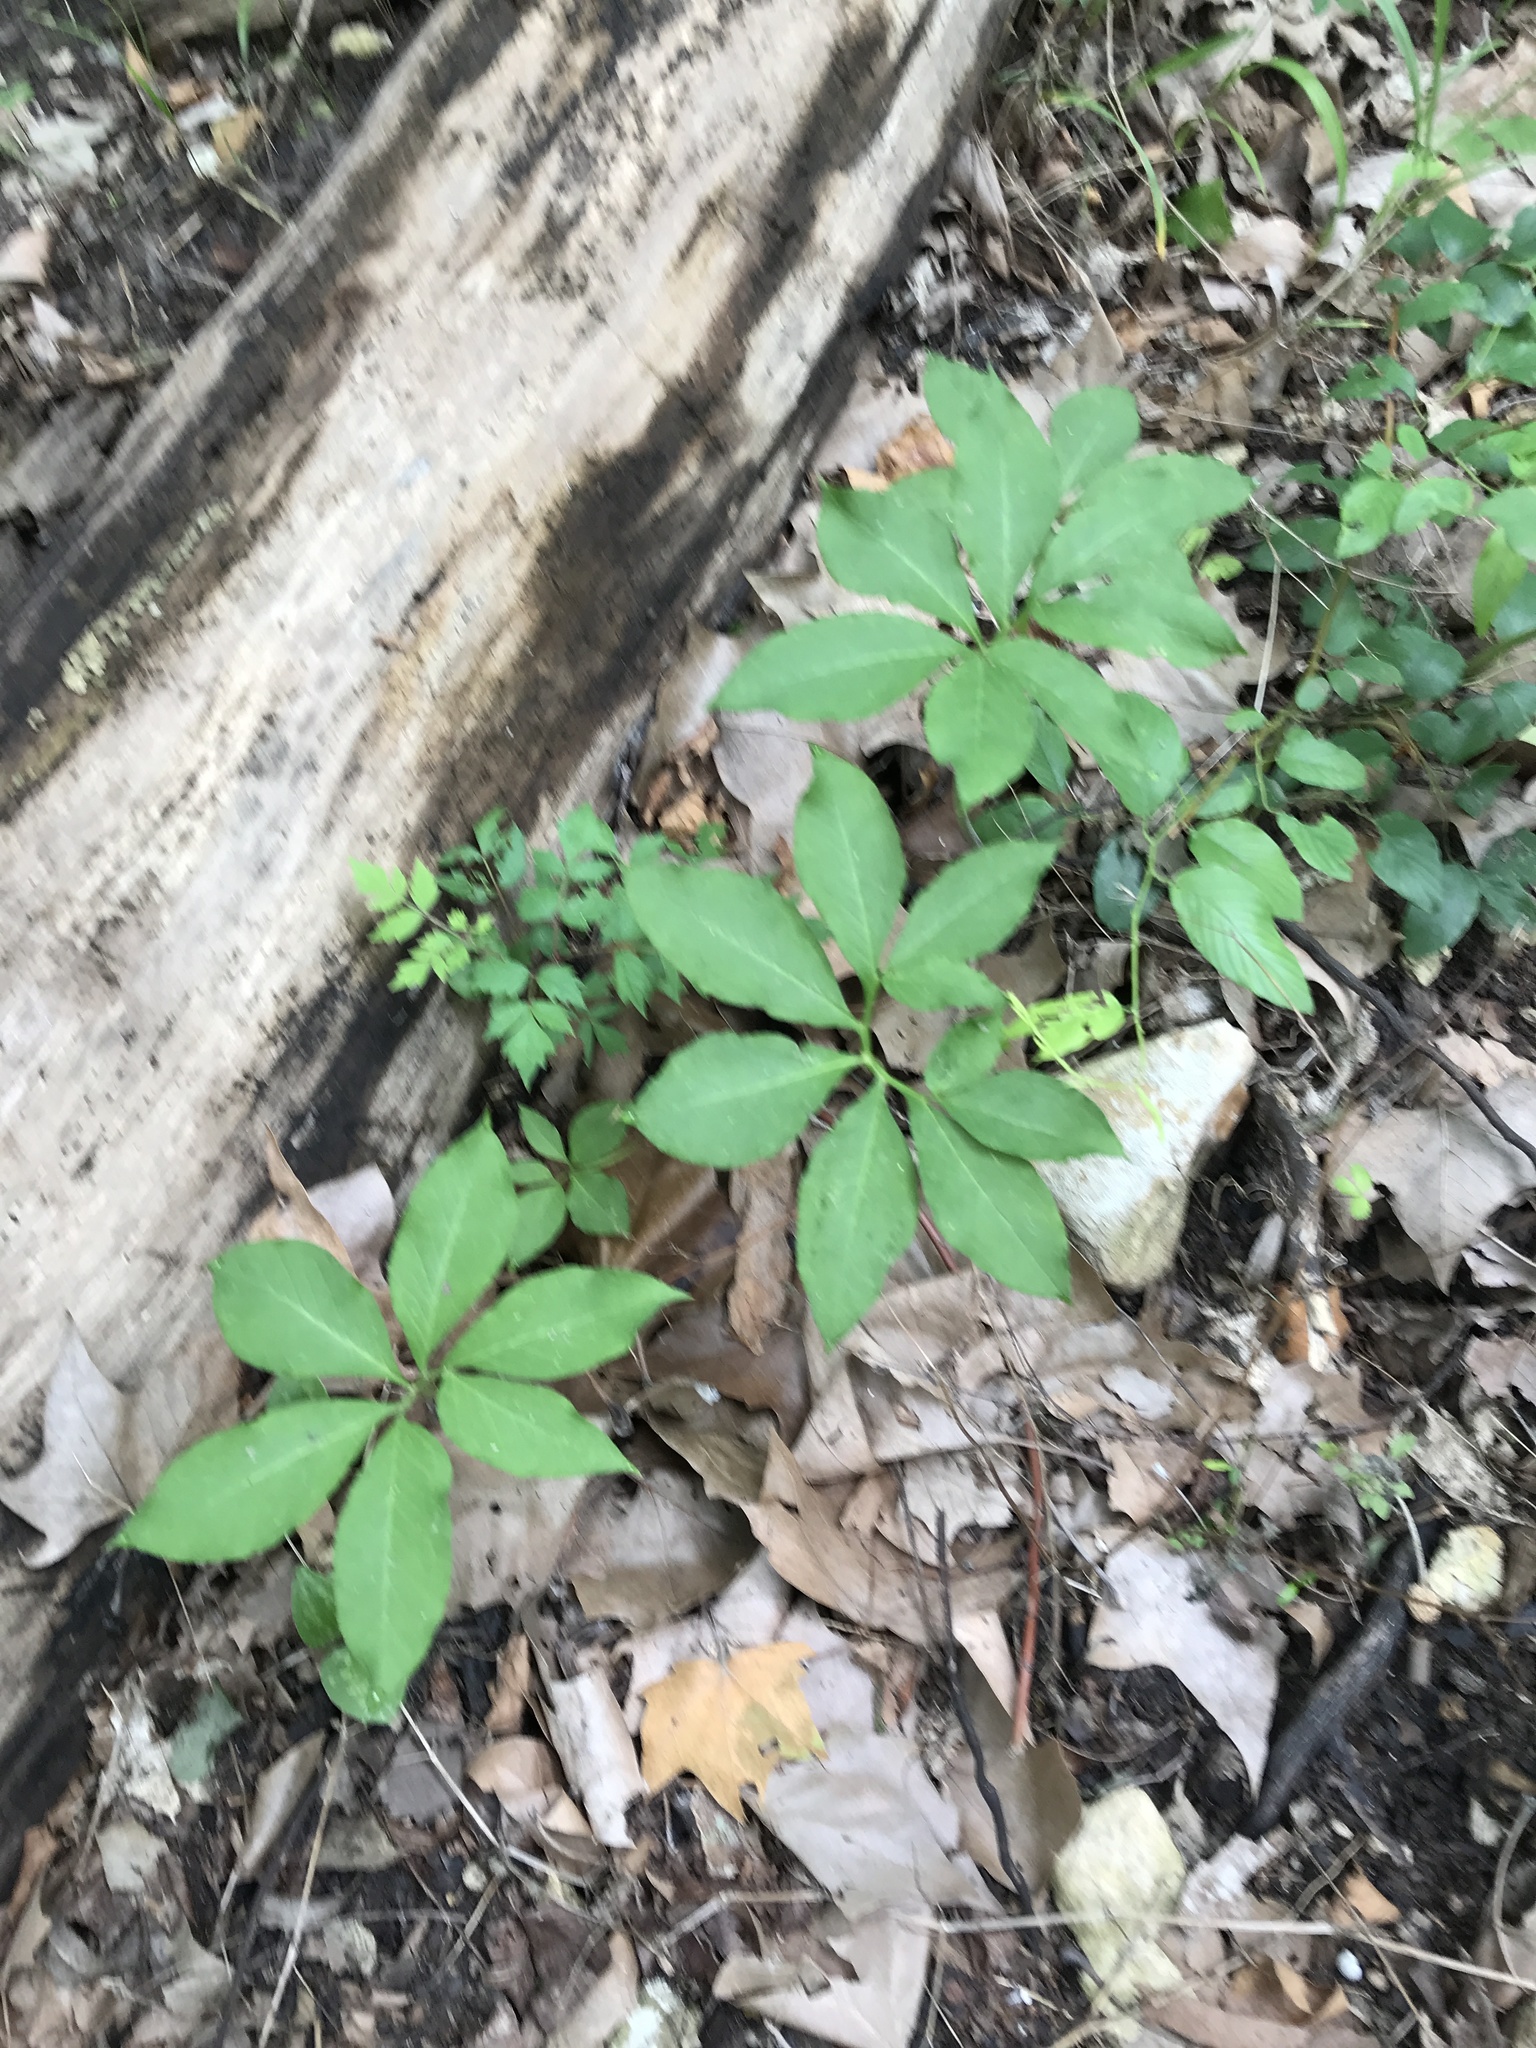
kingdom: Plantae
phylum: Tracheophyta
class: Liliopsida
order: Alismatales
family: Araceae
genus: Arisaema
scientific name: Arisaema dracontium
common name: Dragon-arum
